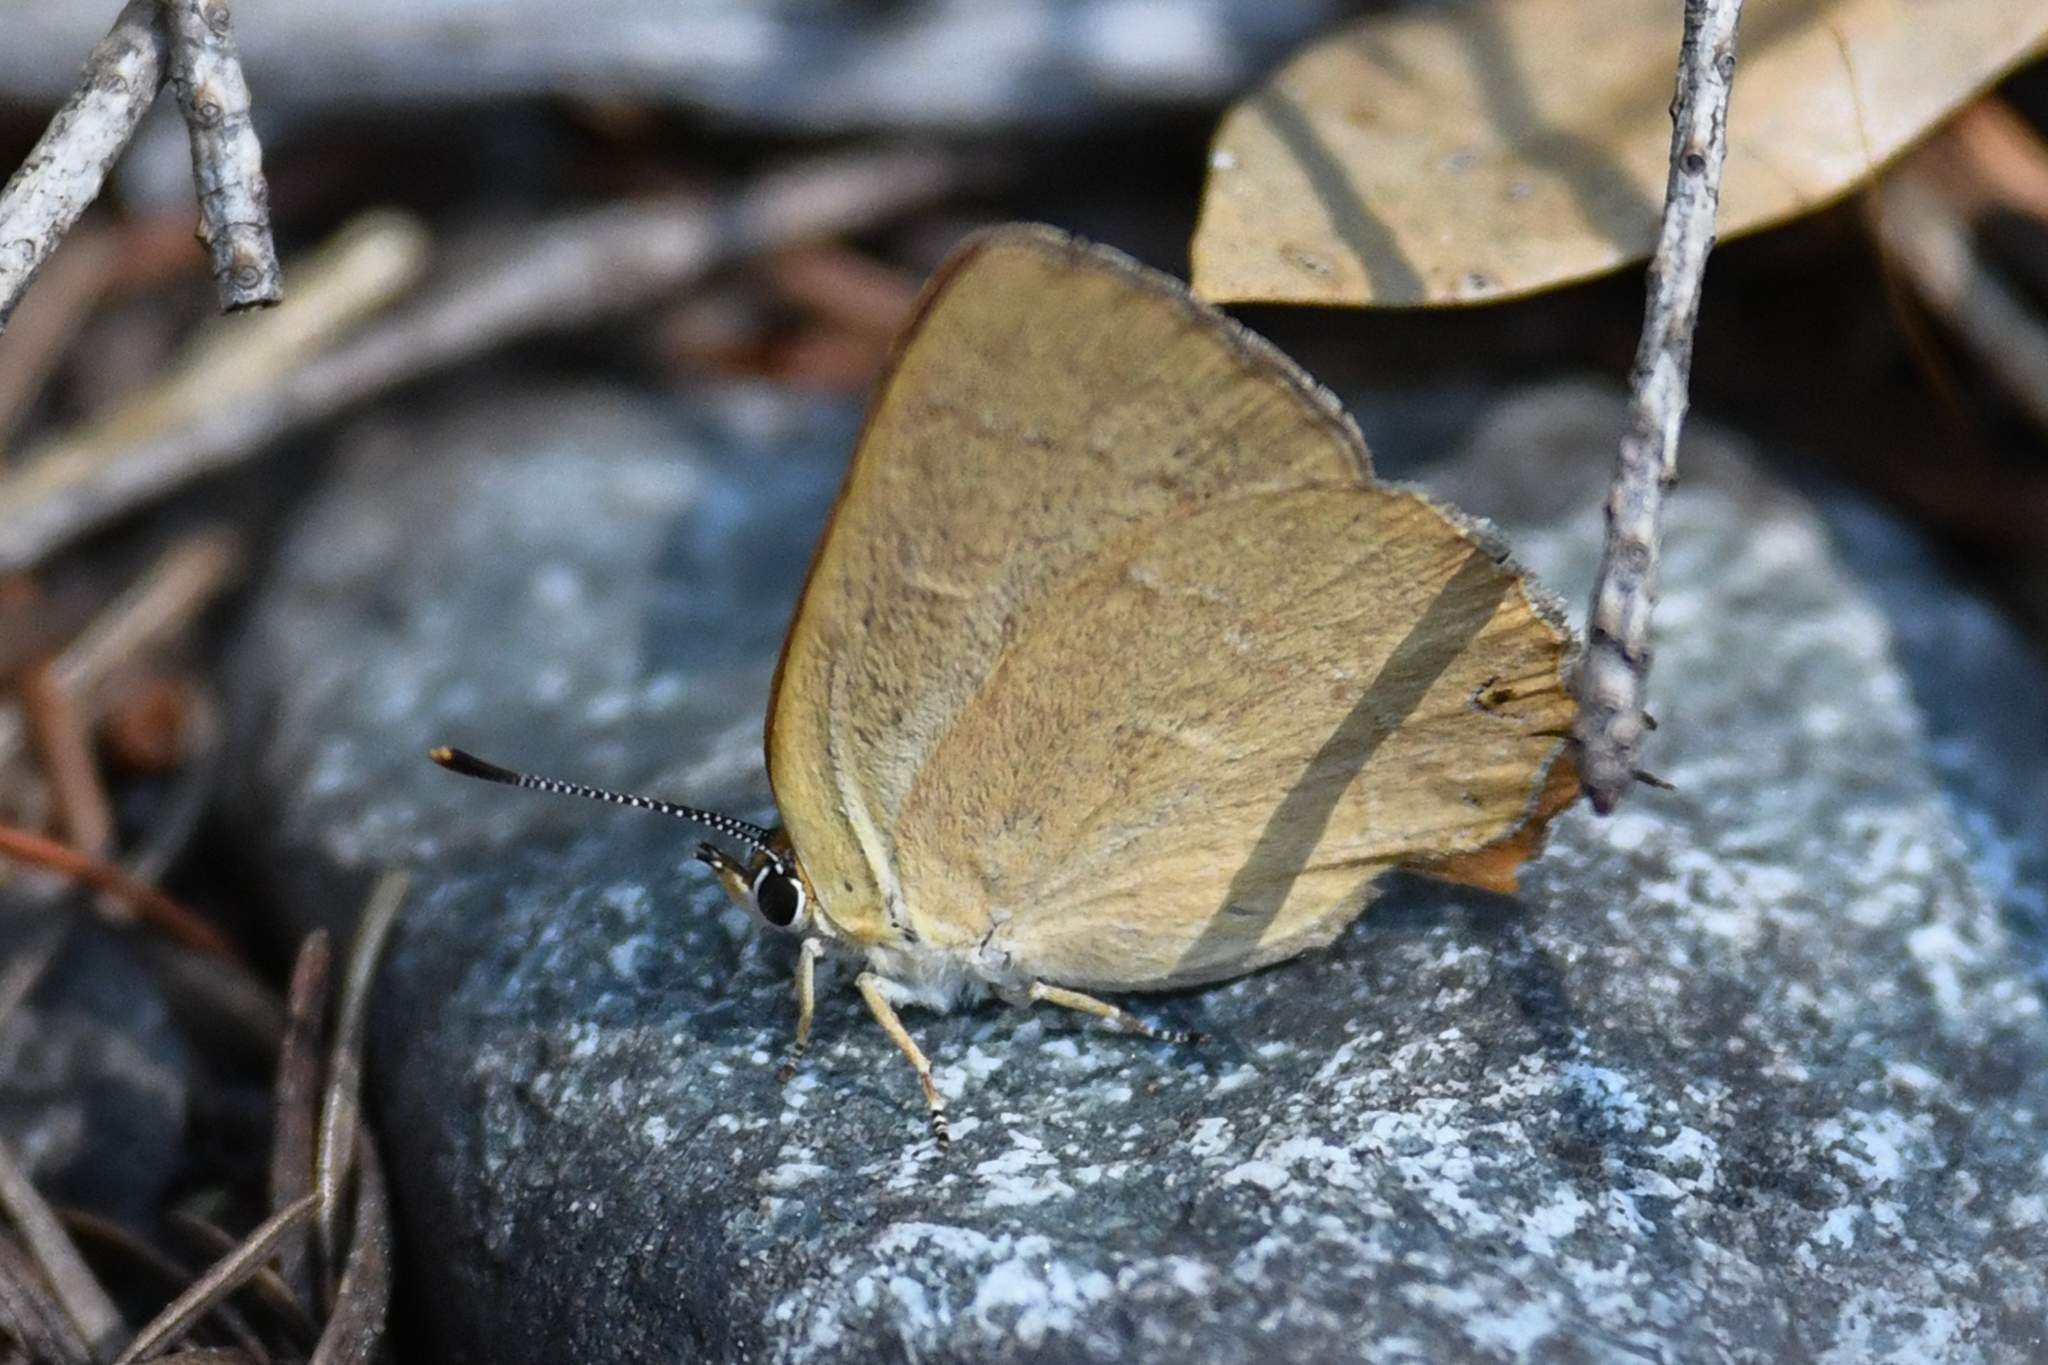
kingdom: Animalia
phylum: Arthropoda
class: Insecta
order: Lepidoptera
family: Lycaenidae
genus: Habrodais
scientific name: Habrodais grunus
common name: Golden hairstreak
